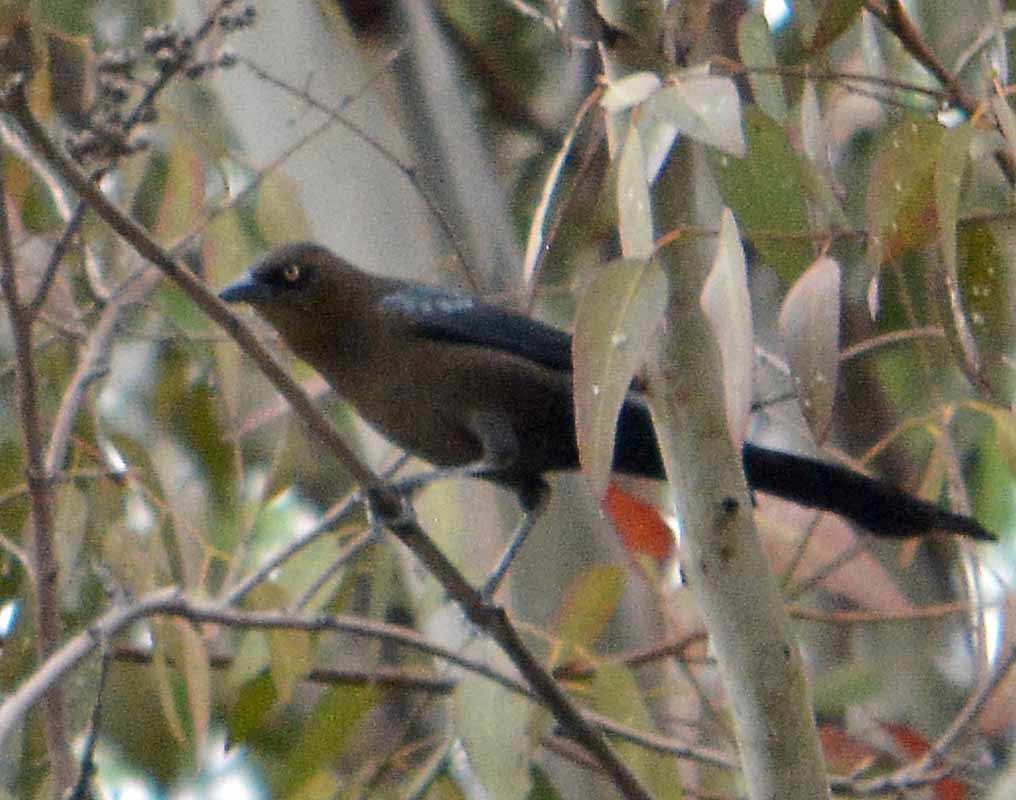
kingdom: Animalia
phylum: Chordata
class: Aves
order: Passeriformes
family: Icteridae
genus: Quiscalus
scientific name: Quiscalus mexicanus
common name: Great-tailed grackle
